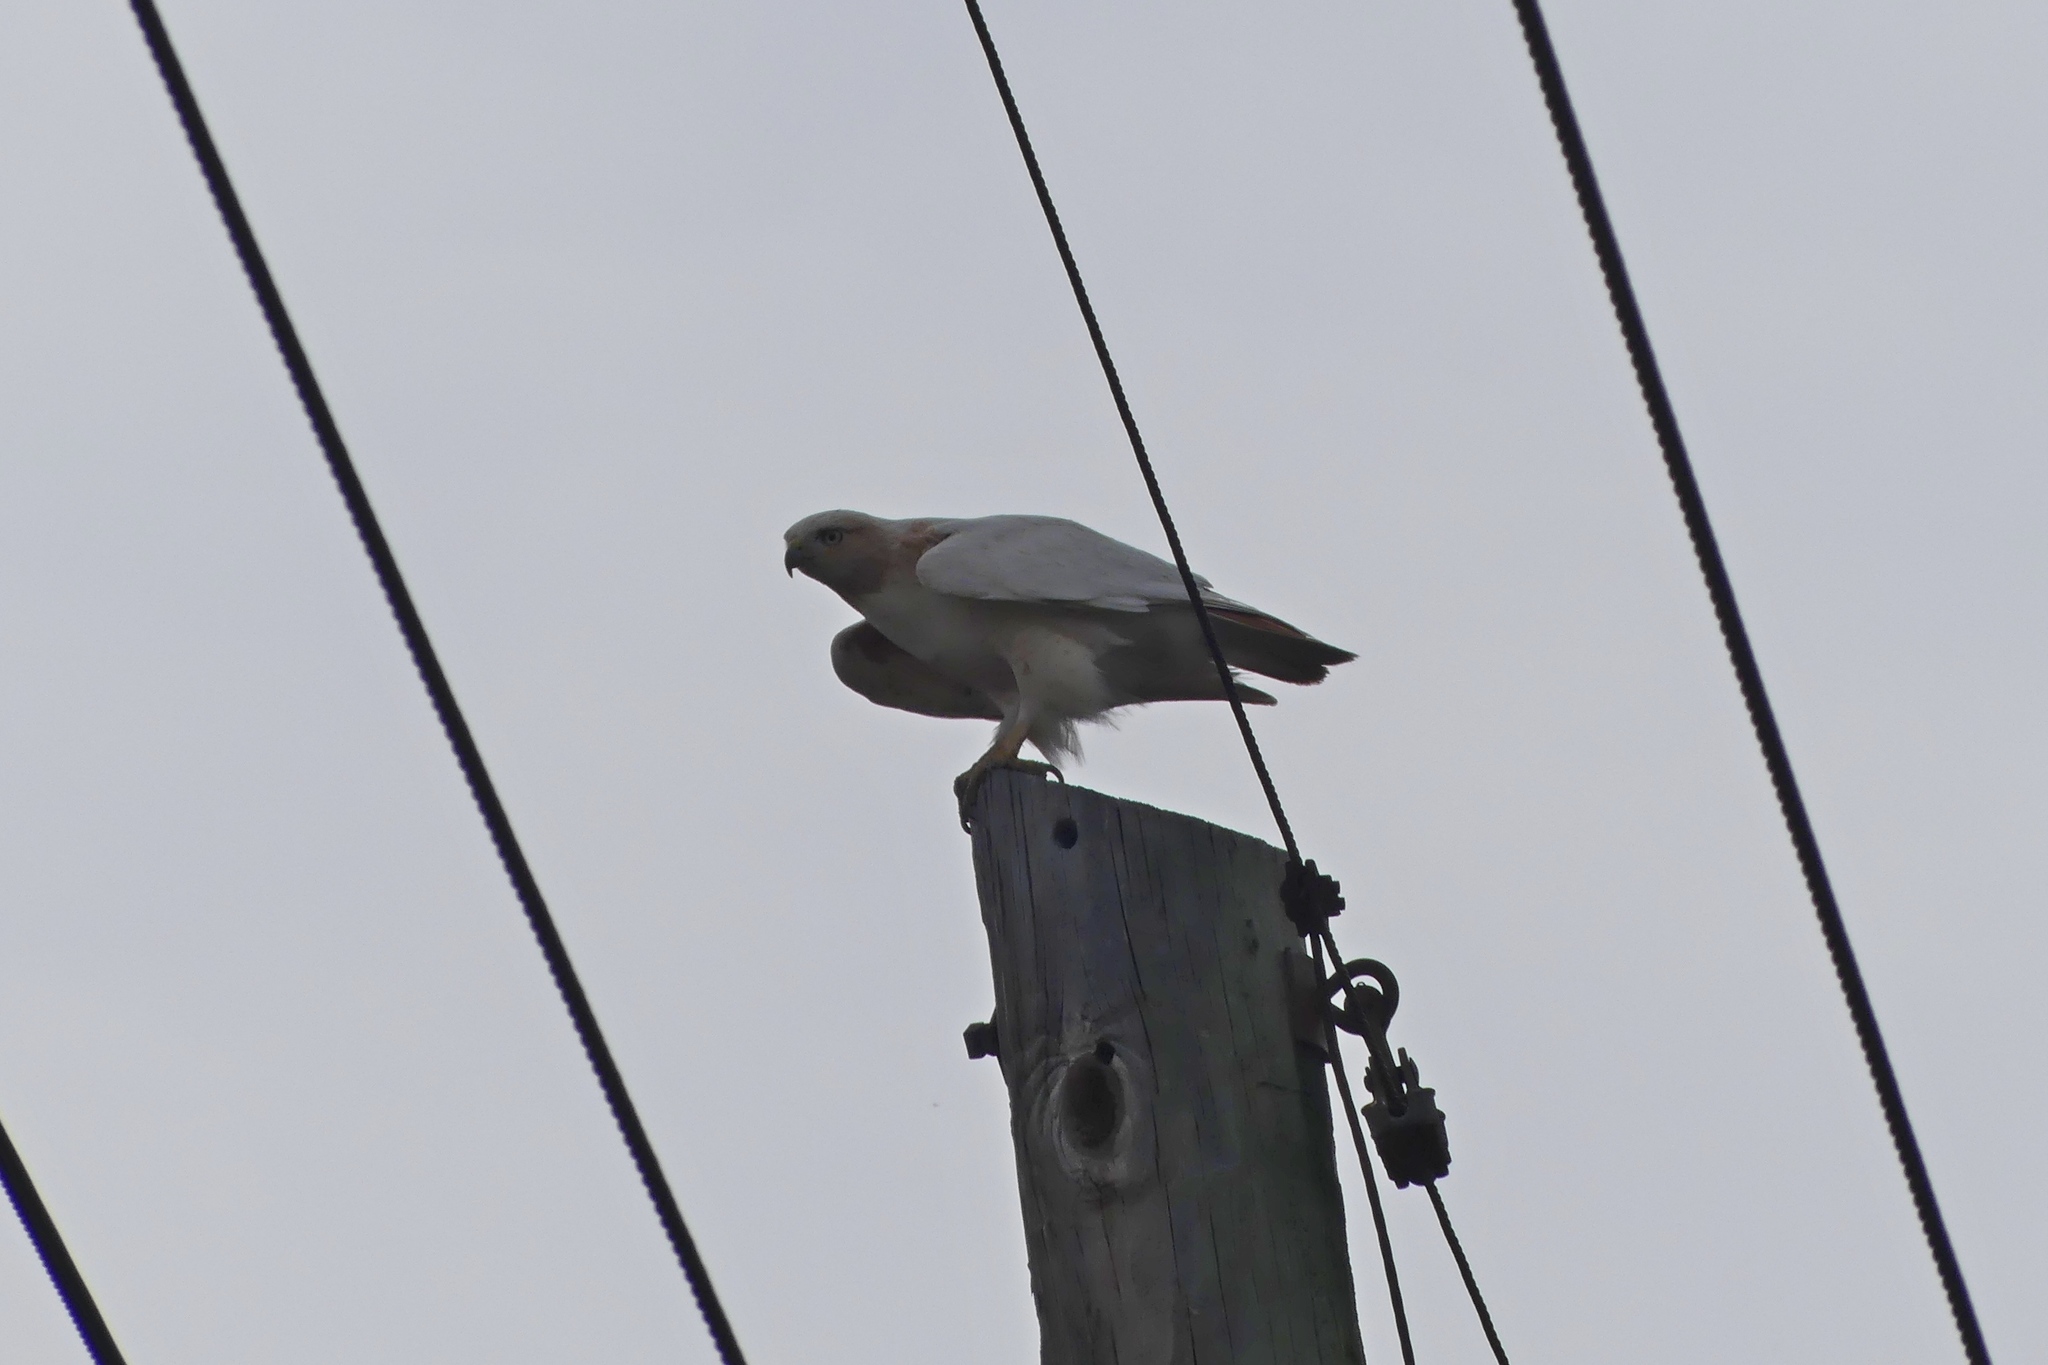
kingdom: Animalia
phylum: Chordata
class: Aves
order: Accipitriformes
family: Accipitridae
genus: Buteo
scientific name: Buteo jamaicensis
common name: Red-tailed hawk
